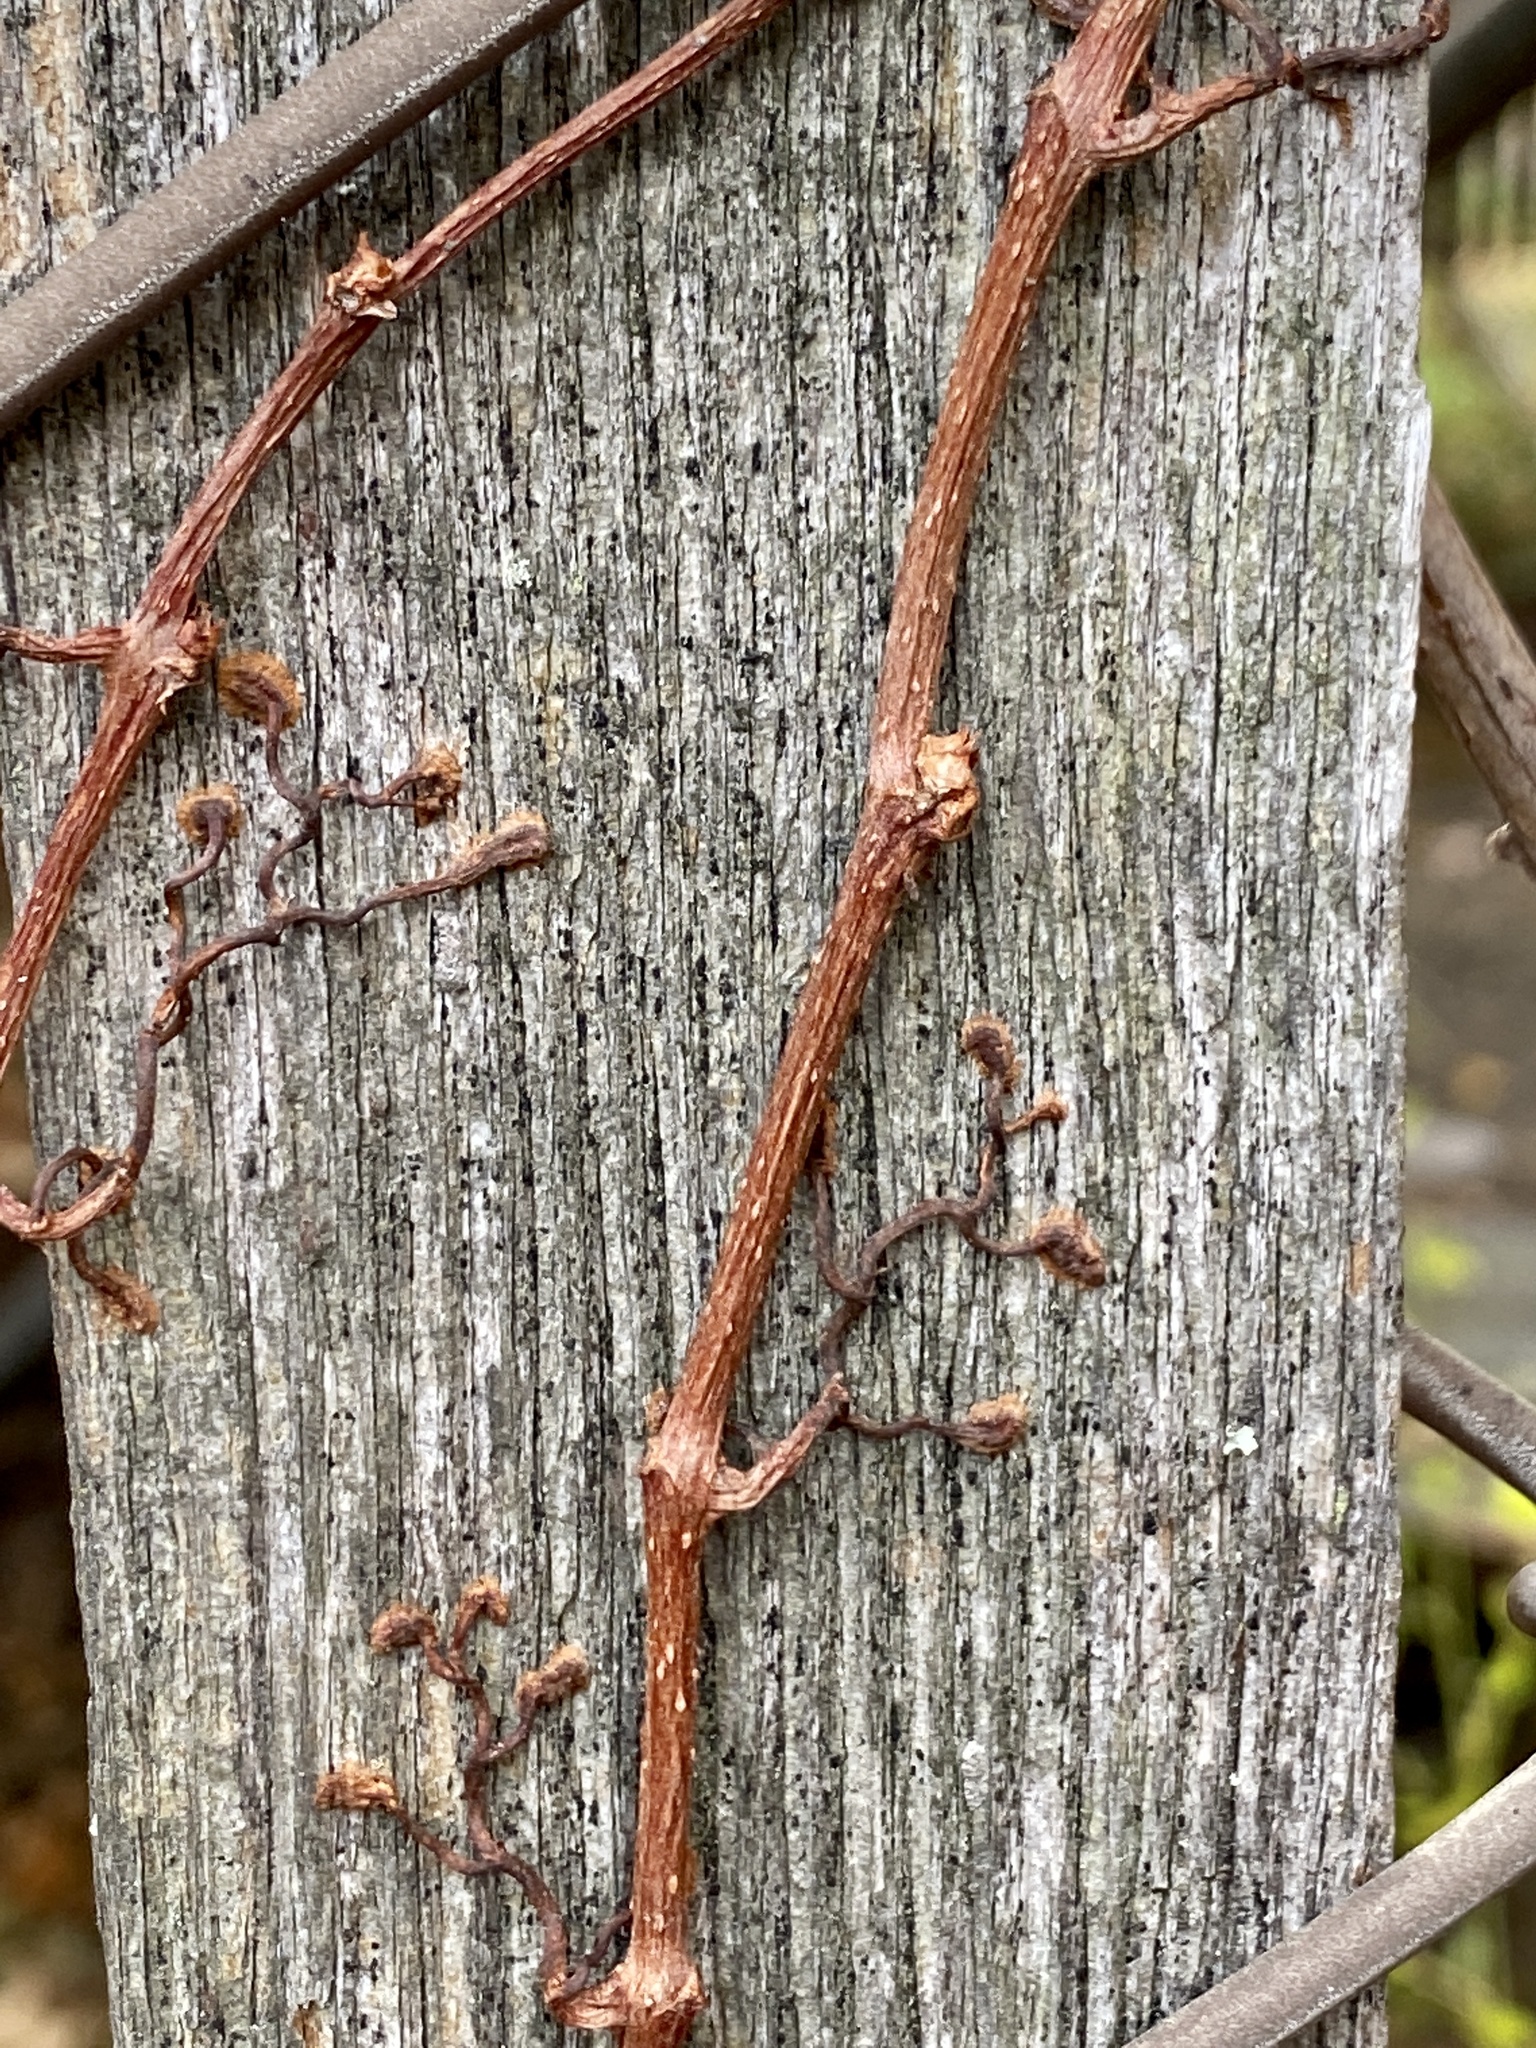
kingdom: Plantae
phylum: Tracheophyta
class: Magnoliopsida
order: Vitales
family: Vitaceae
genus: Parthenocissus
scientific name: Parthenocissus quinquefolia
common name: Virginia-creeper
